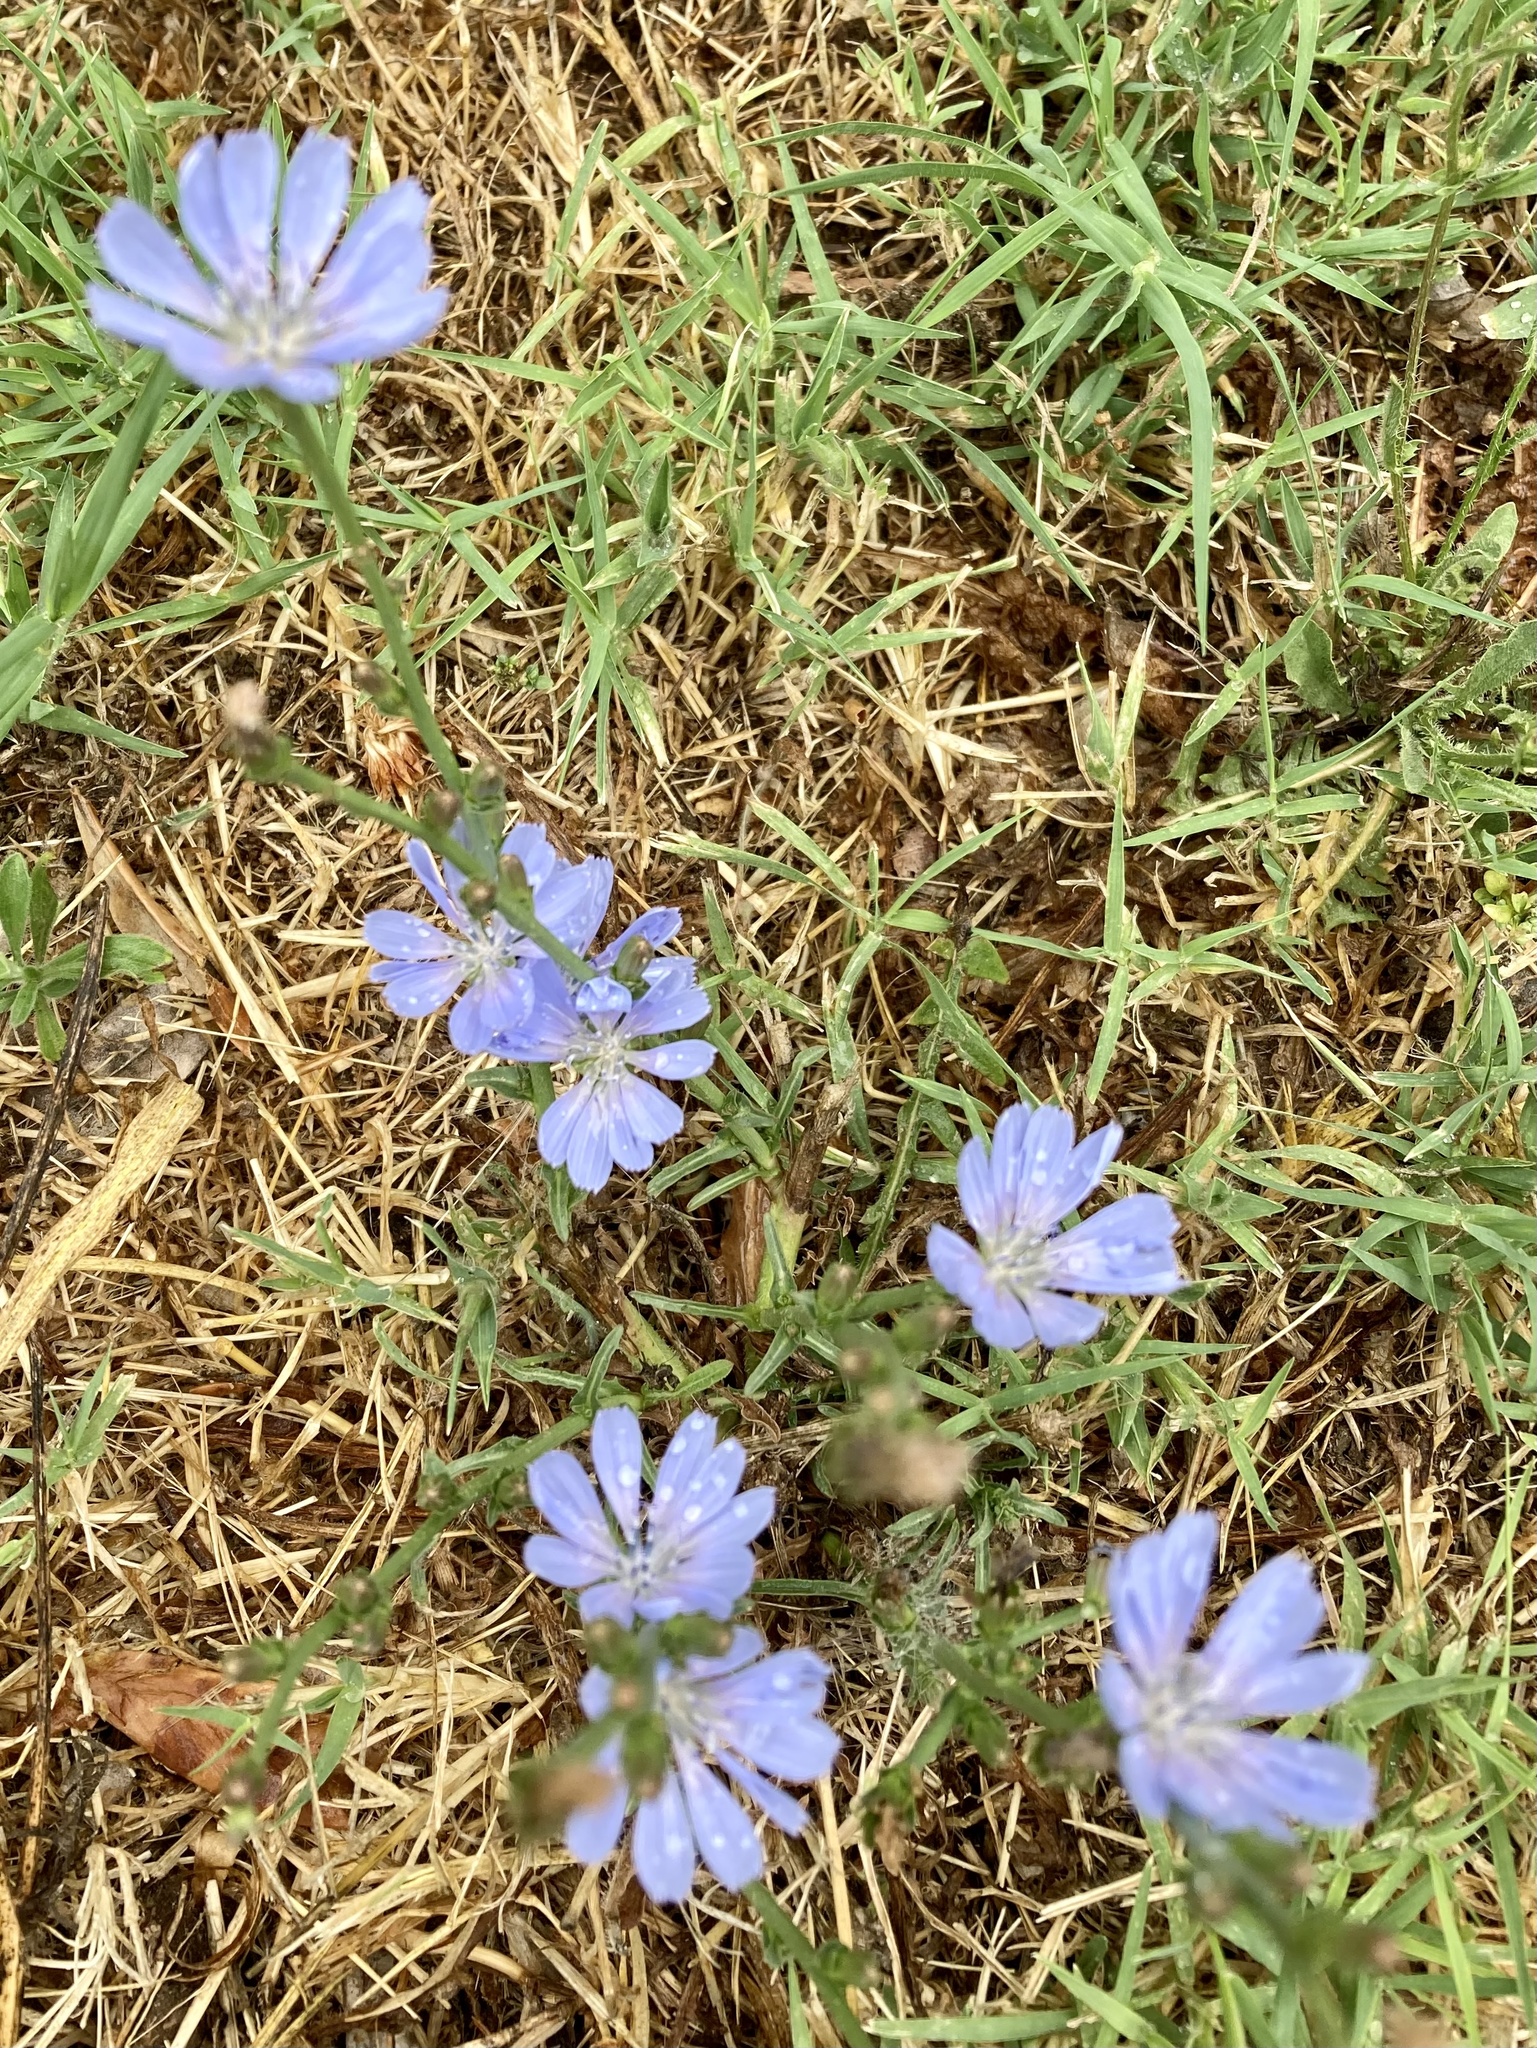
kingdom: Plantae
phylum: Tracheophyta
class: Magnoliopsida
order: Asterales
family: Asteraceae
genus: Cichorium
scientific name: Cichorium intybus
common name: Chicory
